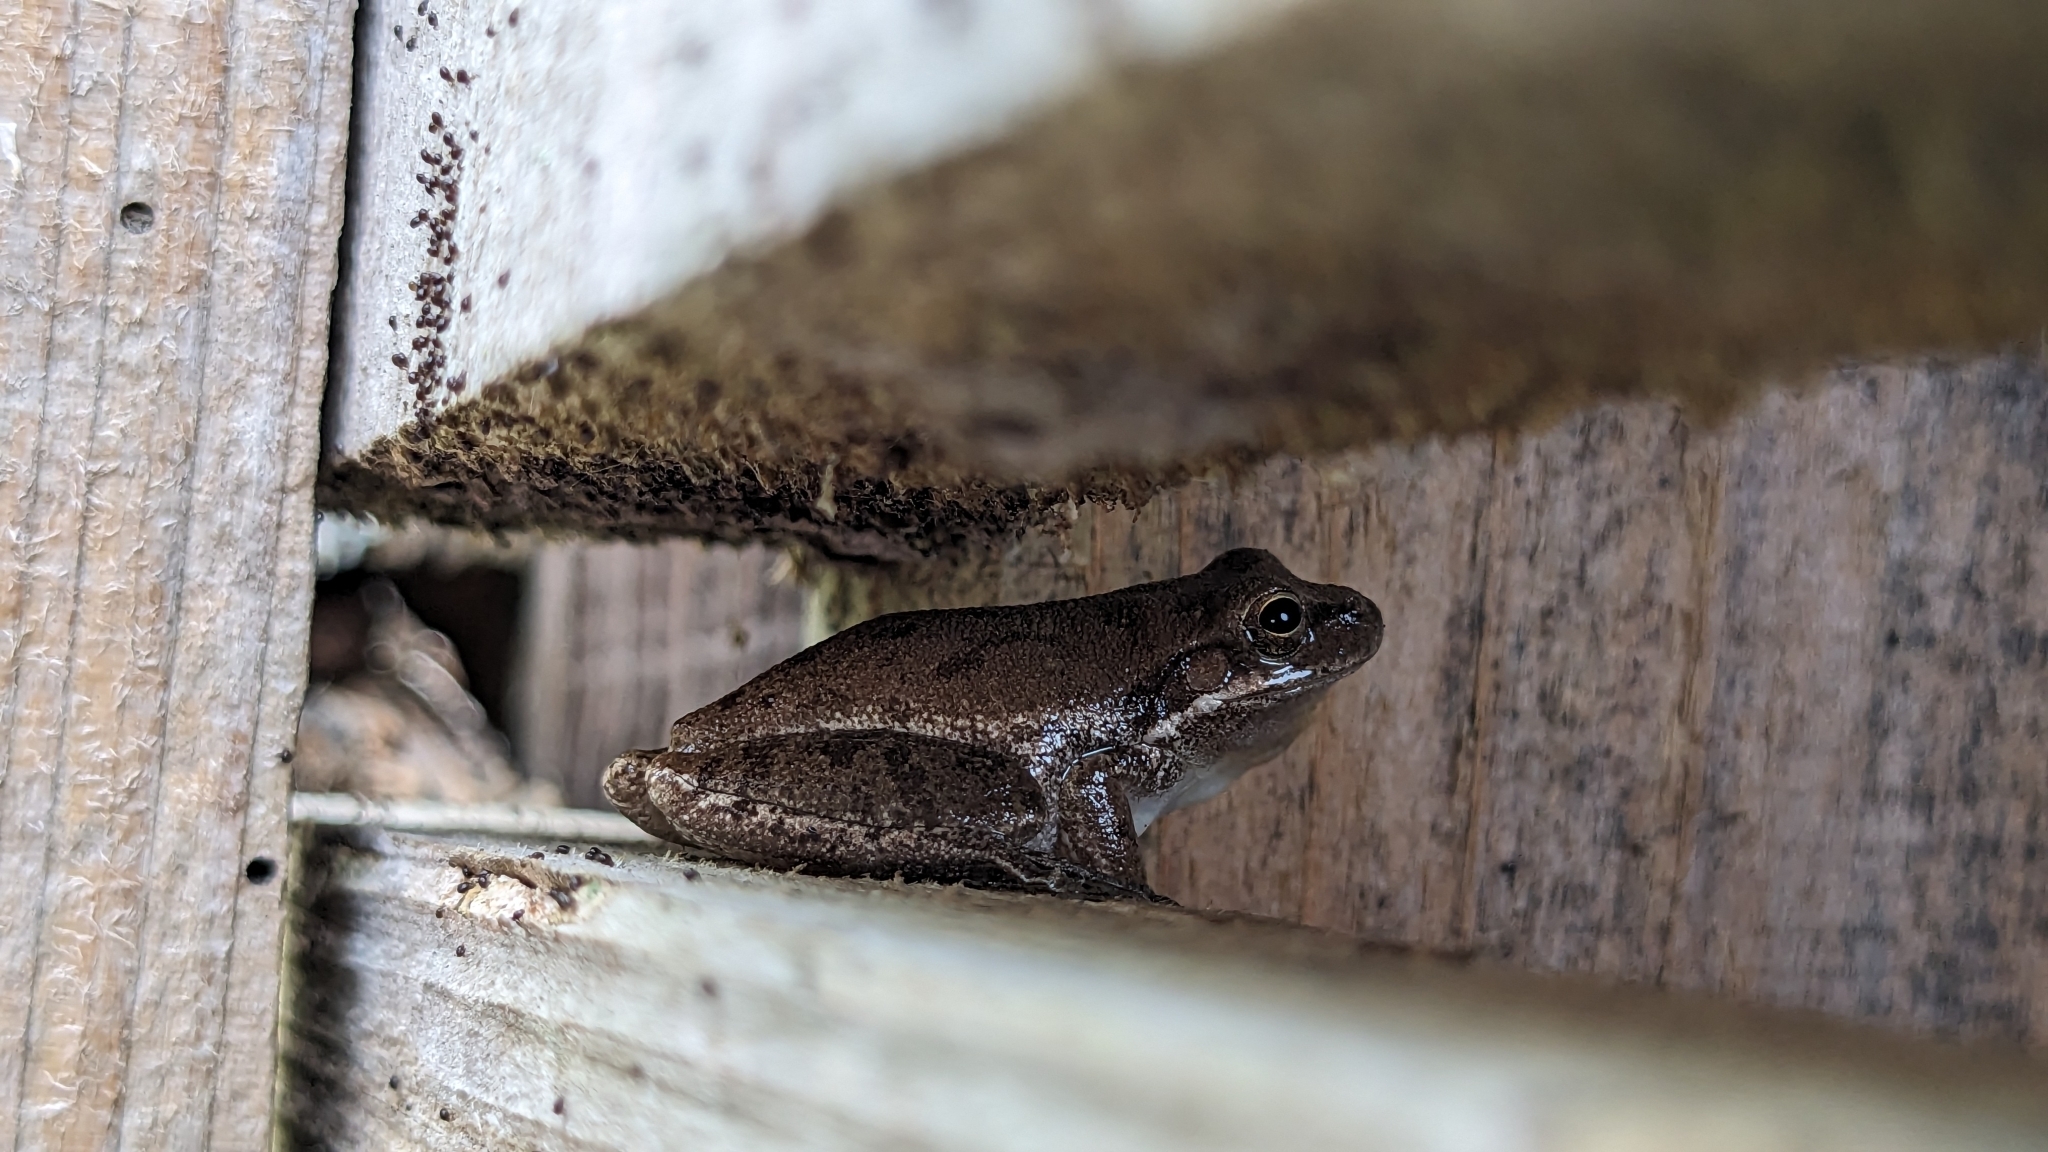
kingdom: Animalia
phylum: Chordata
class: Amphibia
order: Anura
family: Hylidae
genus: Dryophytes
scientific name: Dryophytes squirellus
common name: Squirrel treefrog
